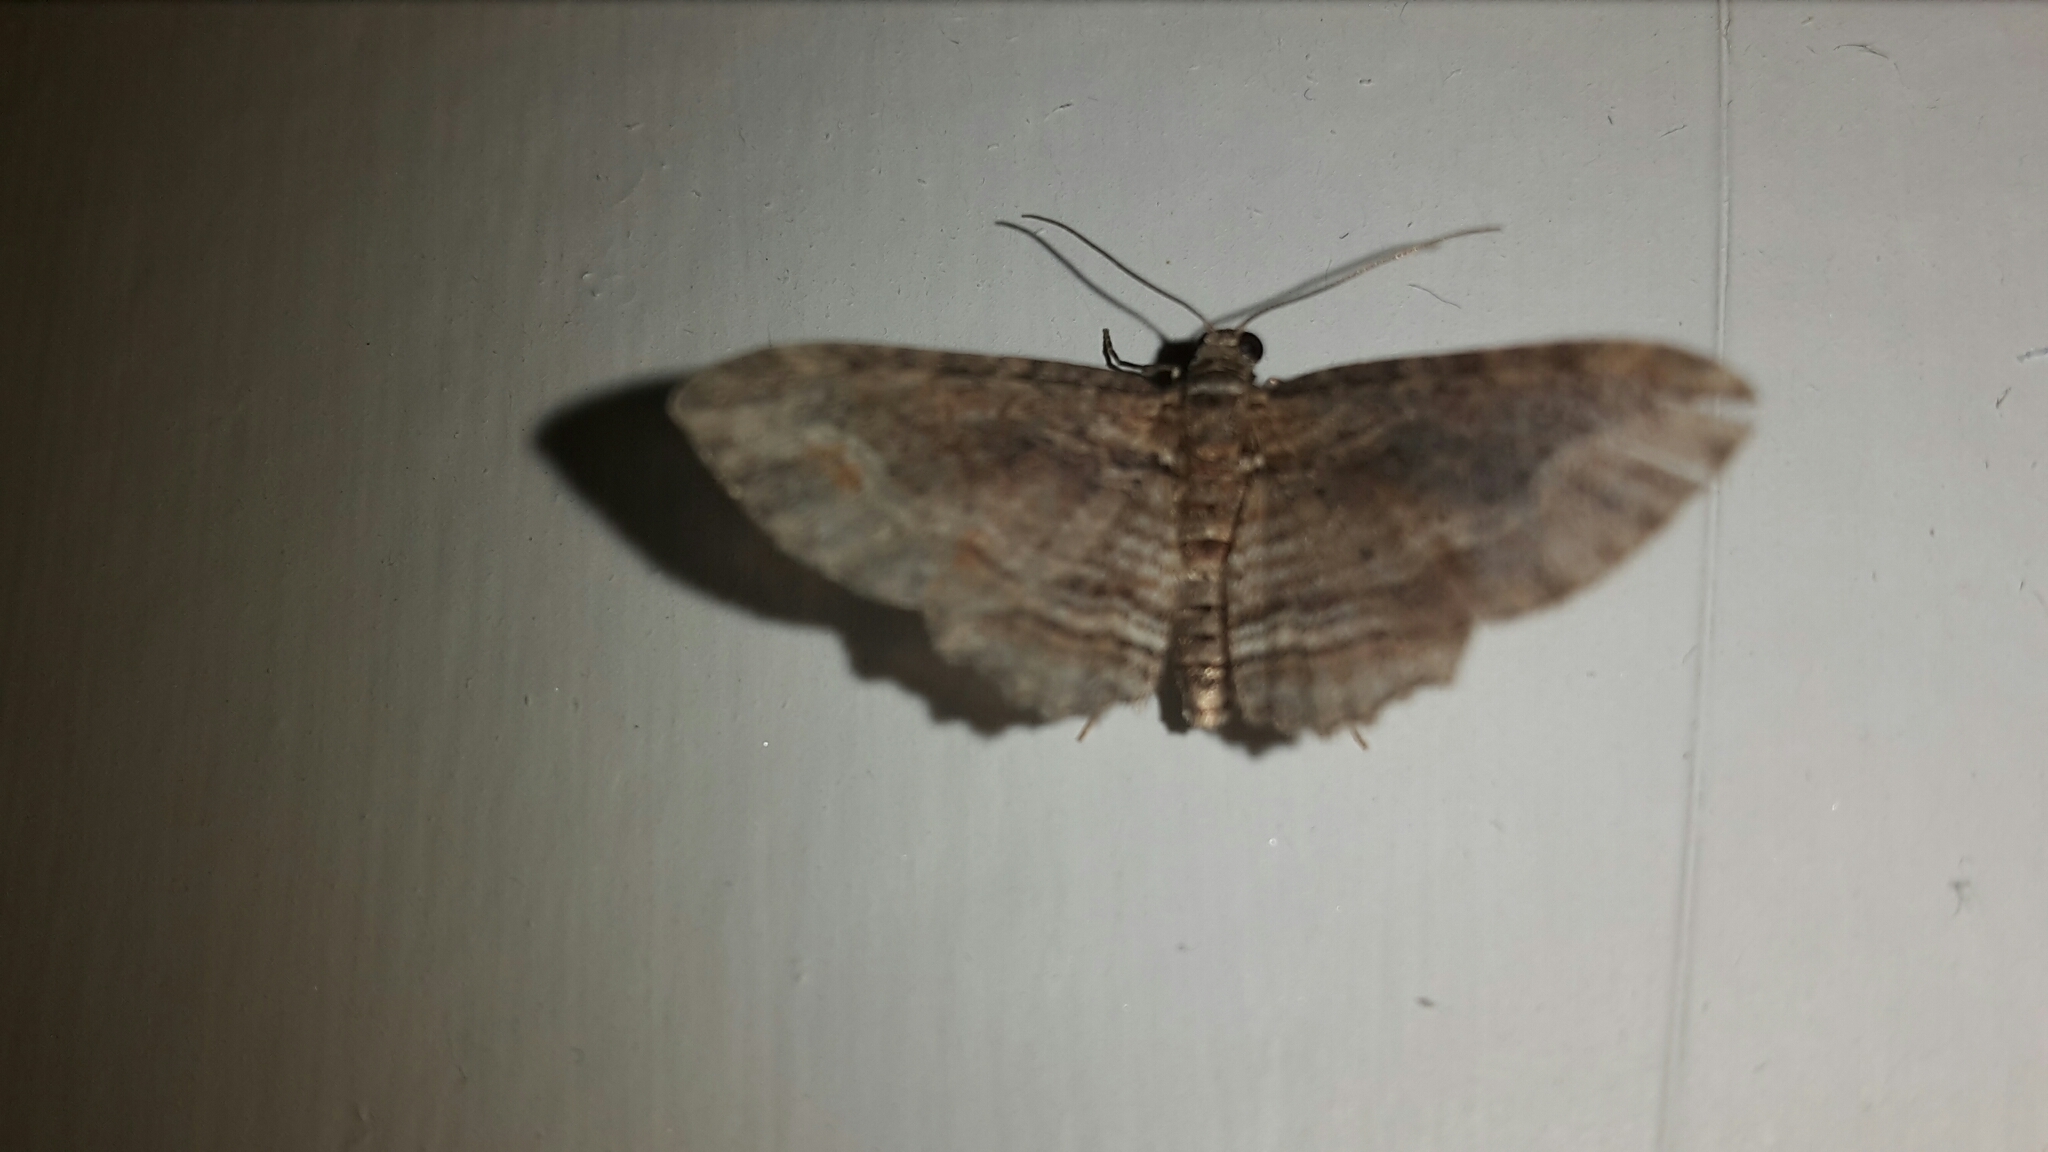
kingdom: Animalia
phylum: Arthropoda
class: Insecta
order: Lepidoptera
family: Geometridae
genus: Chloroclystis
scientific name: Chloroclystis filata
